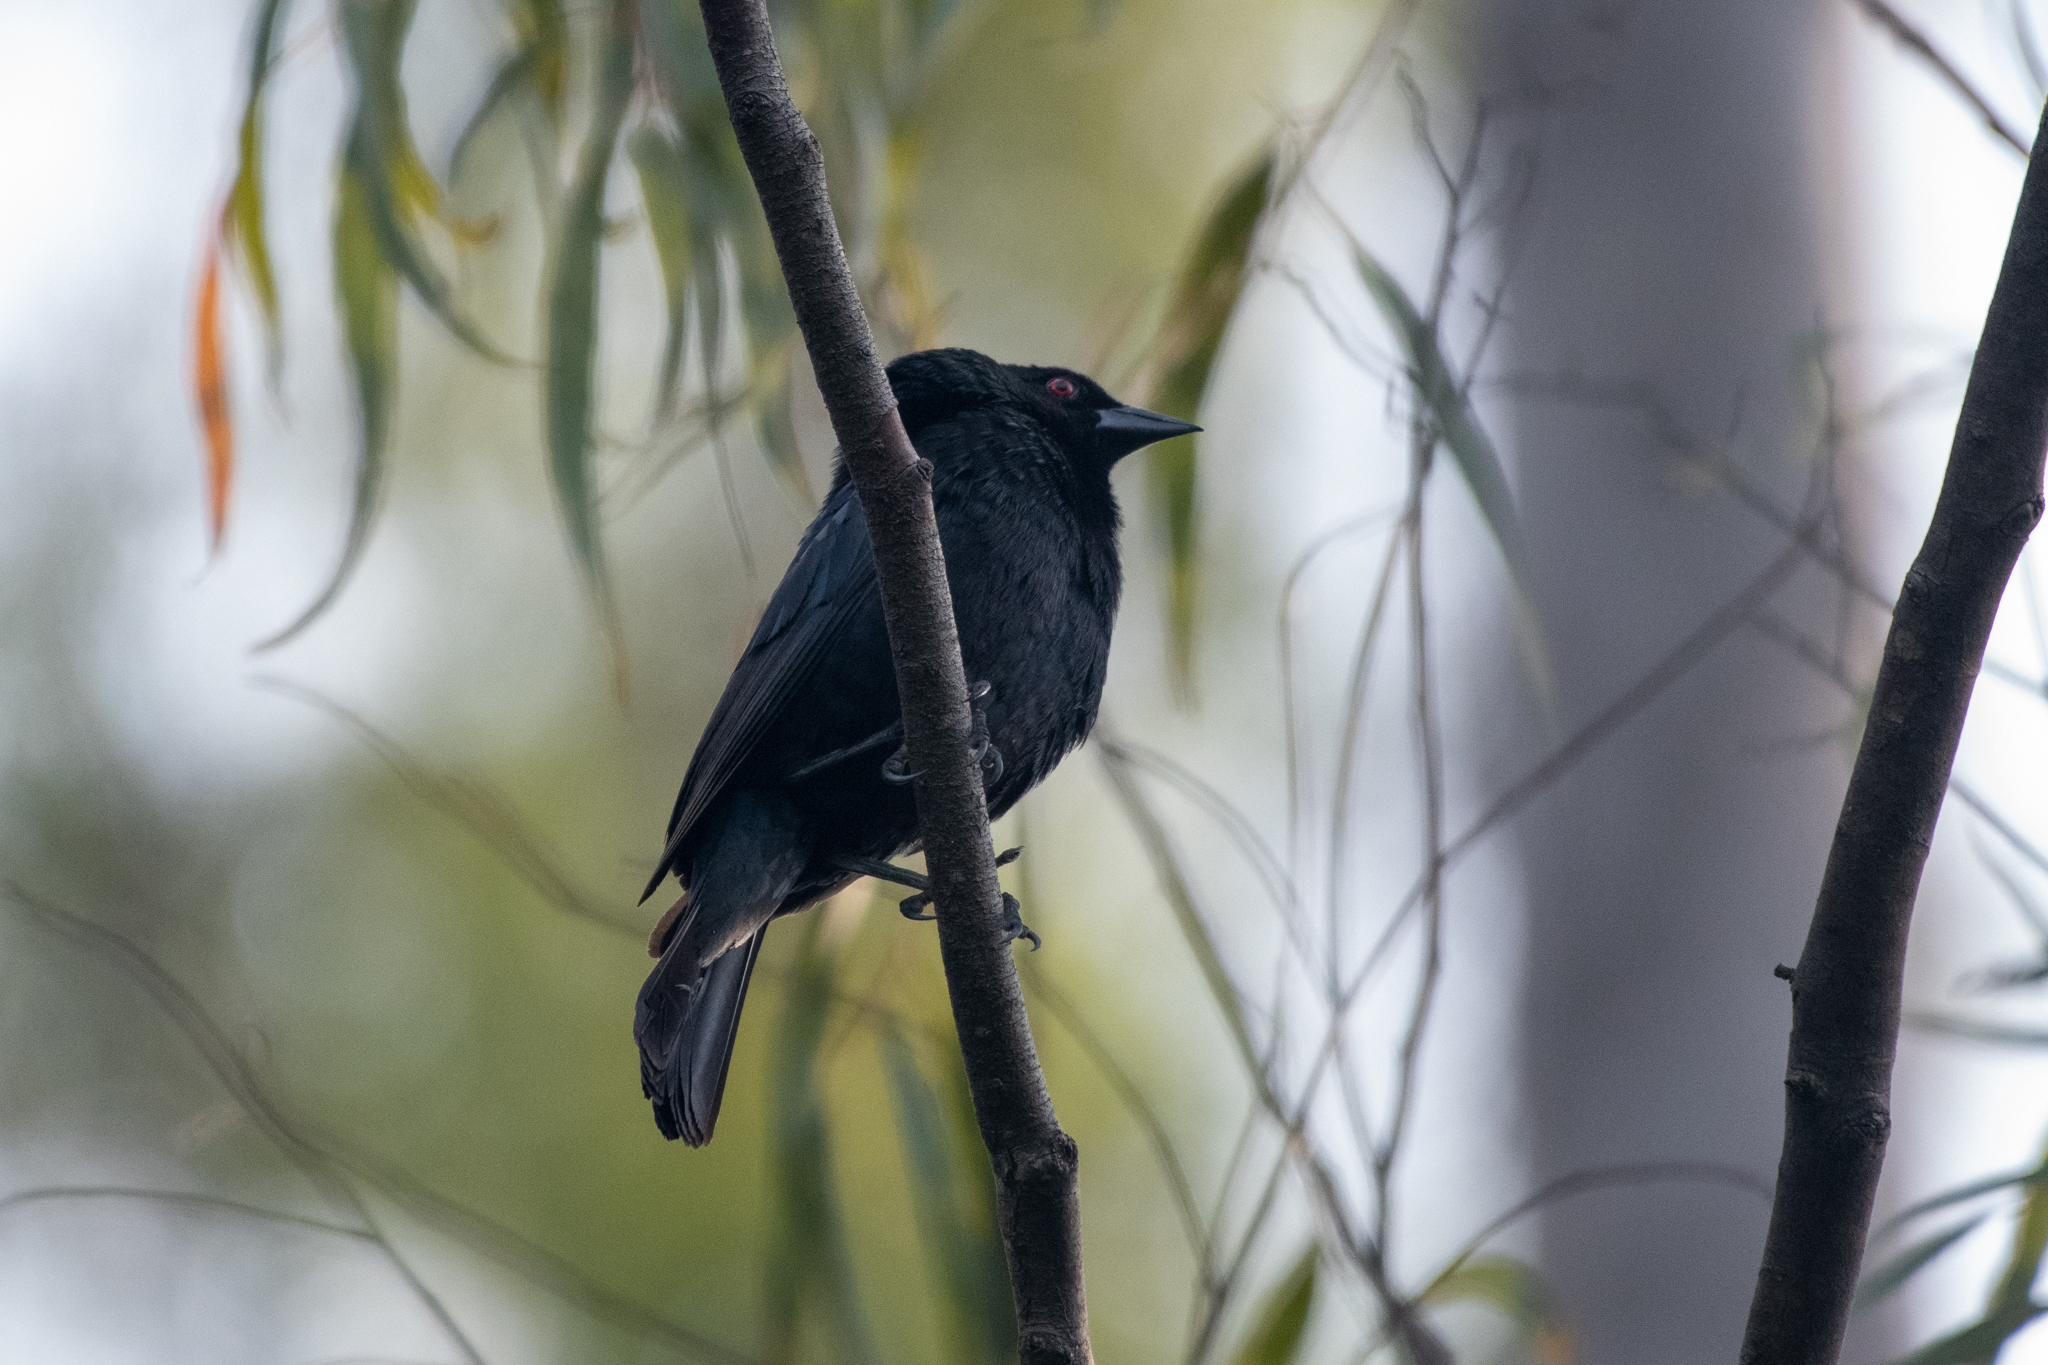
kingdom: Animalia
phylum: Chordata
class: Aves
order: Passeriformes
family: Icteridae
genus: Molothrus
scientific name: Molothrus aeneus
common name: Bronzed cowbird
